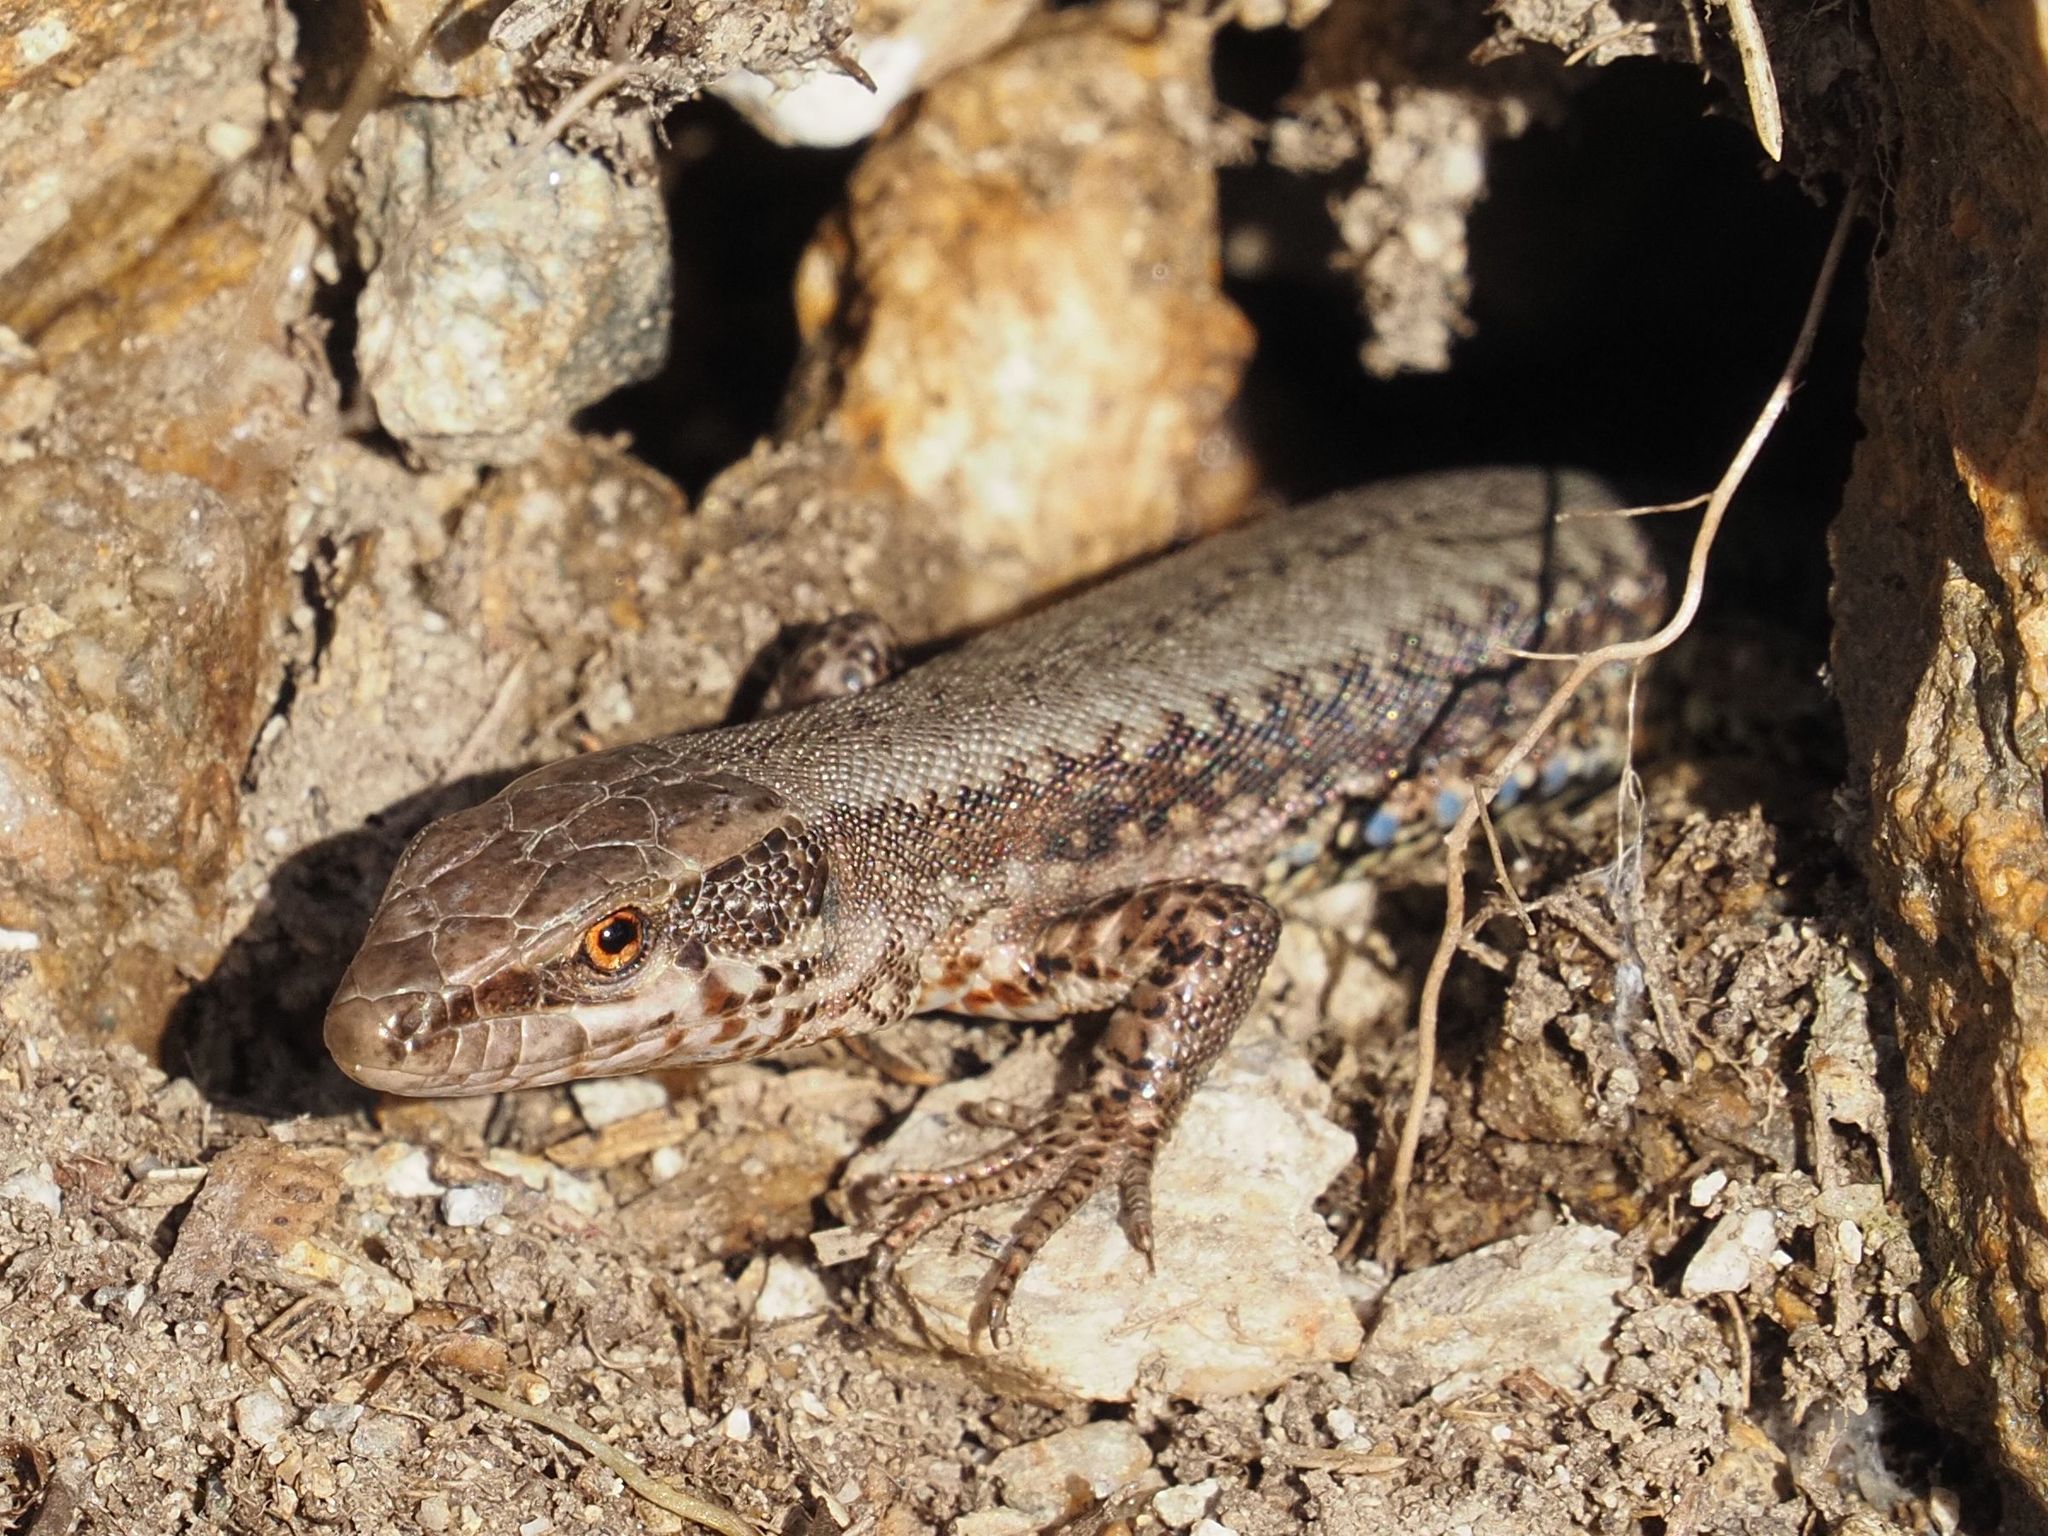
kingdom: Animalia
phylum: Chordata
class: Squamata
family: Lacertidae
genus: Podarcis
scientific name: Podarcis muralis
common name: Common wall lizard
